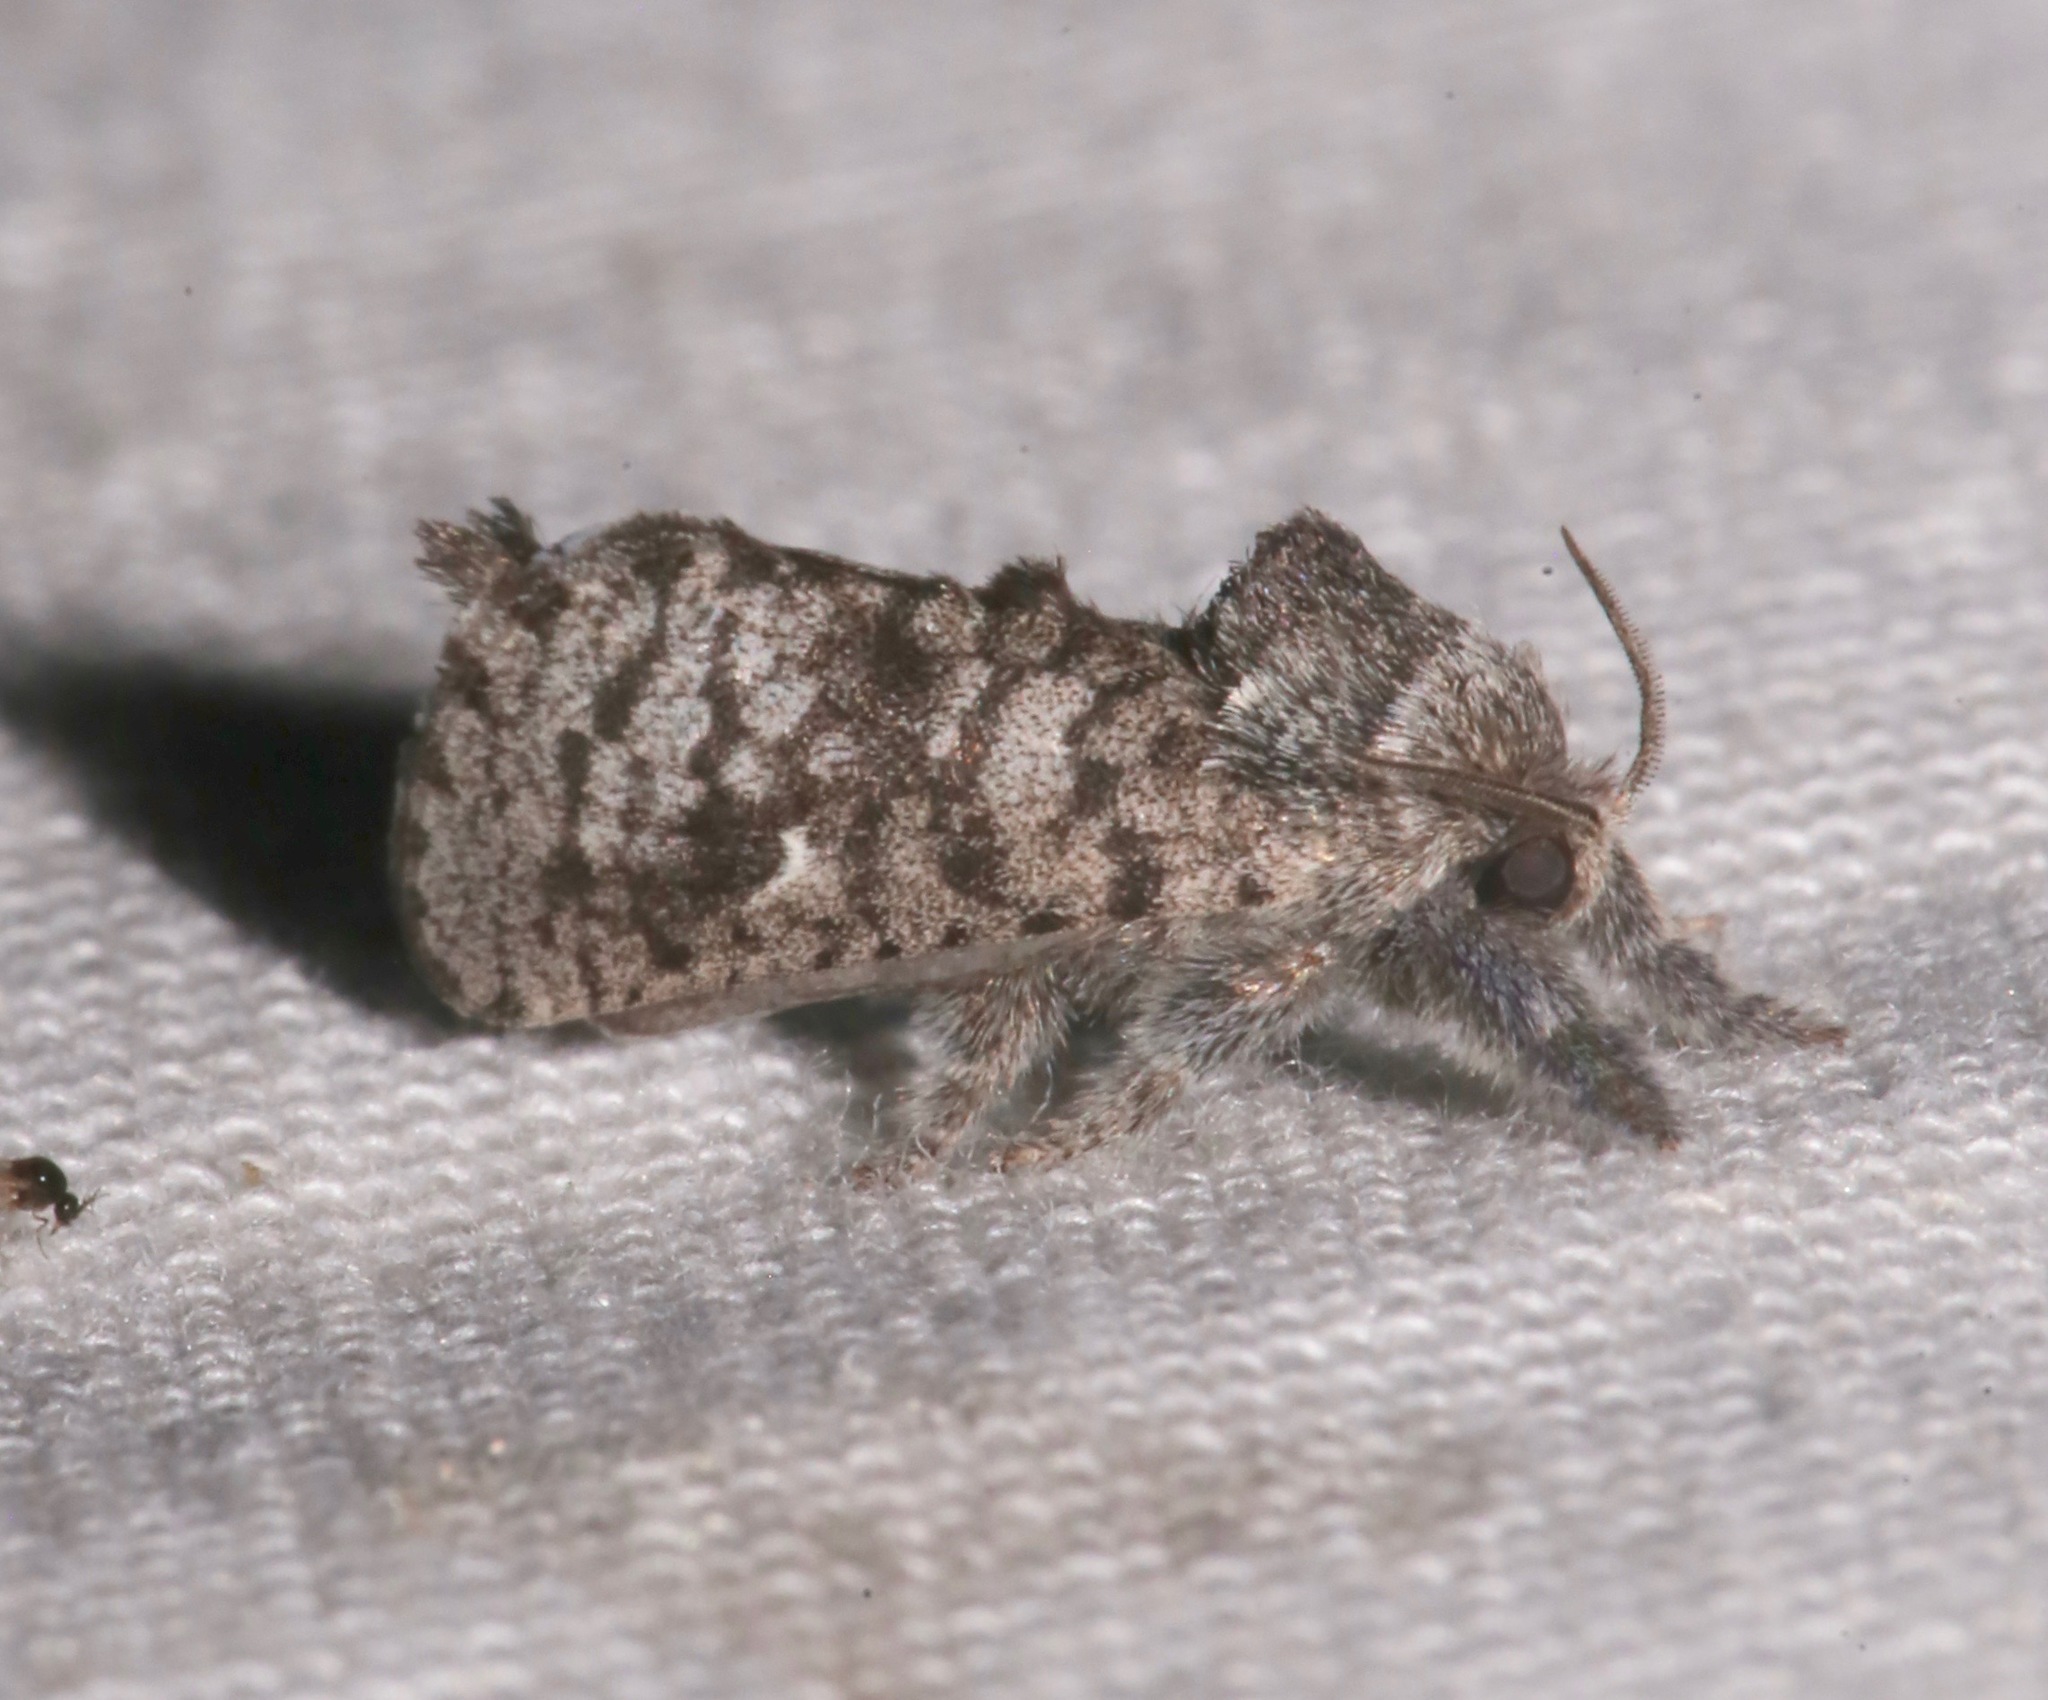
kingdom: Animalia
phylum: Arthropoda
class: Insecta
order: Lepidoptera
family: Cossidae
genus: Givira
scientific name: Givira francesca
